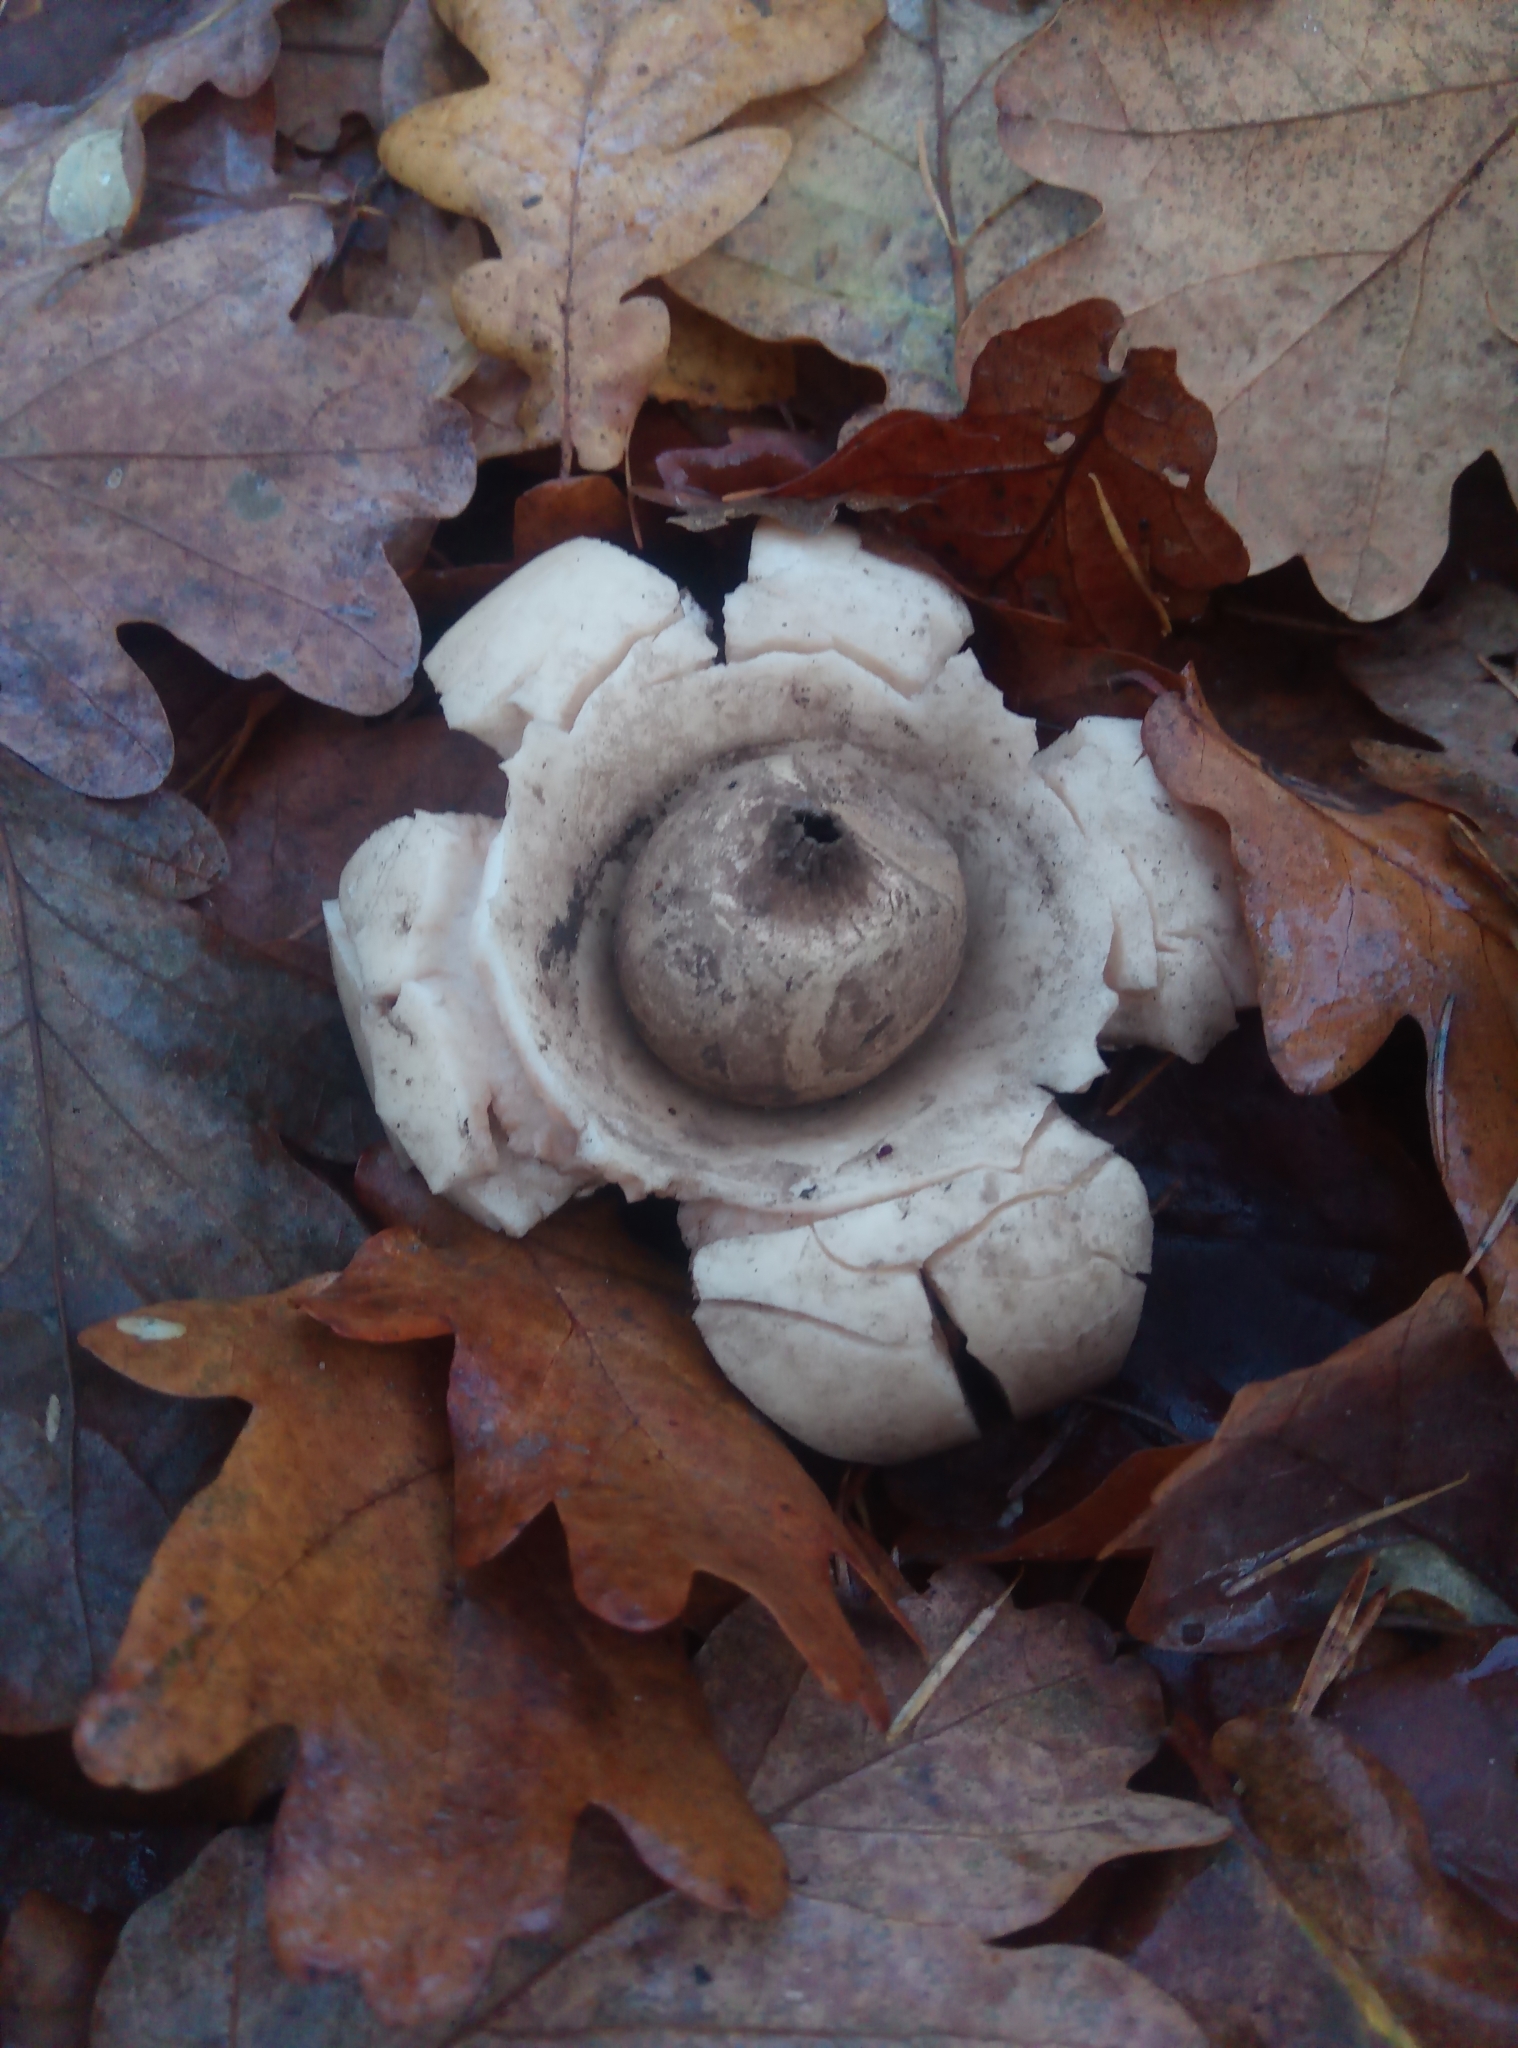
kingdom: Fungi
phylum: Basidiomycota
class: Agaricomycetes
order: Geastrales
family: Geastraceae
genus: Geastrum
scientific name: Geastrum triplex
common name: Collared earthstar
